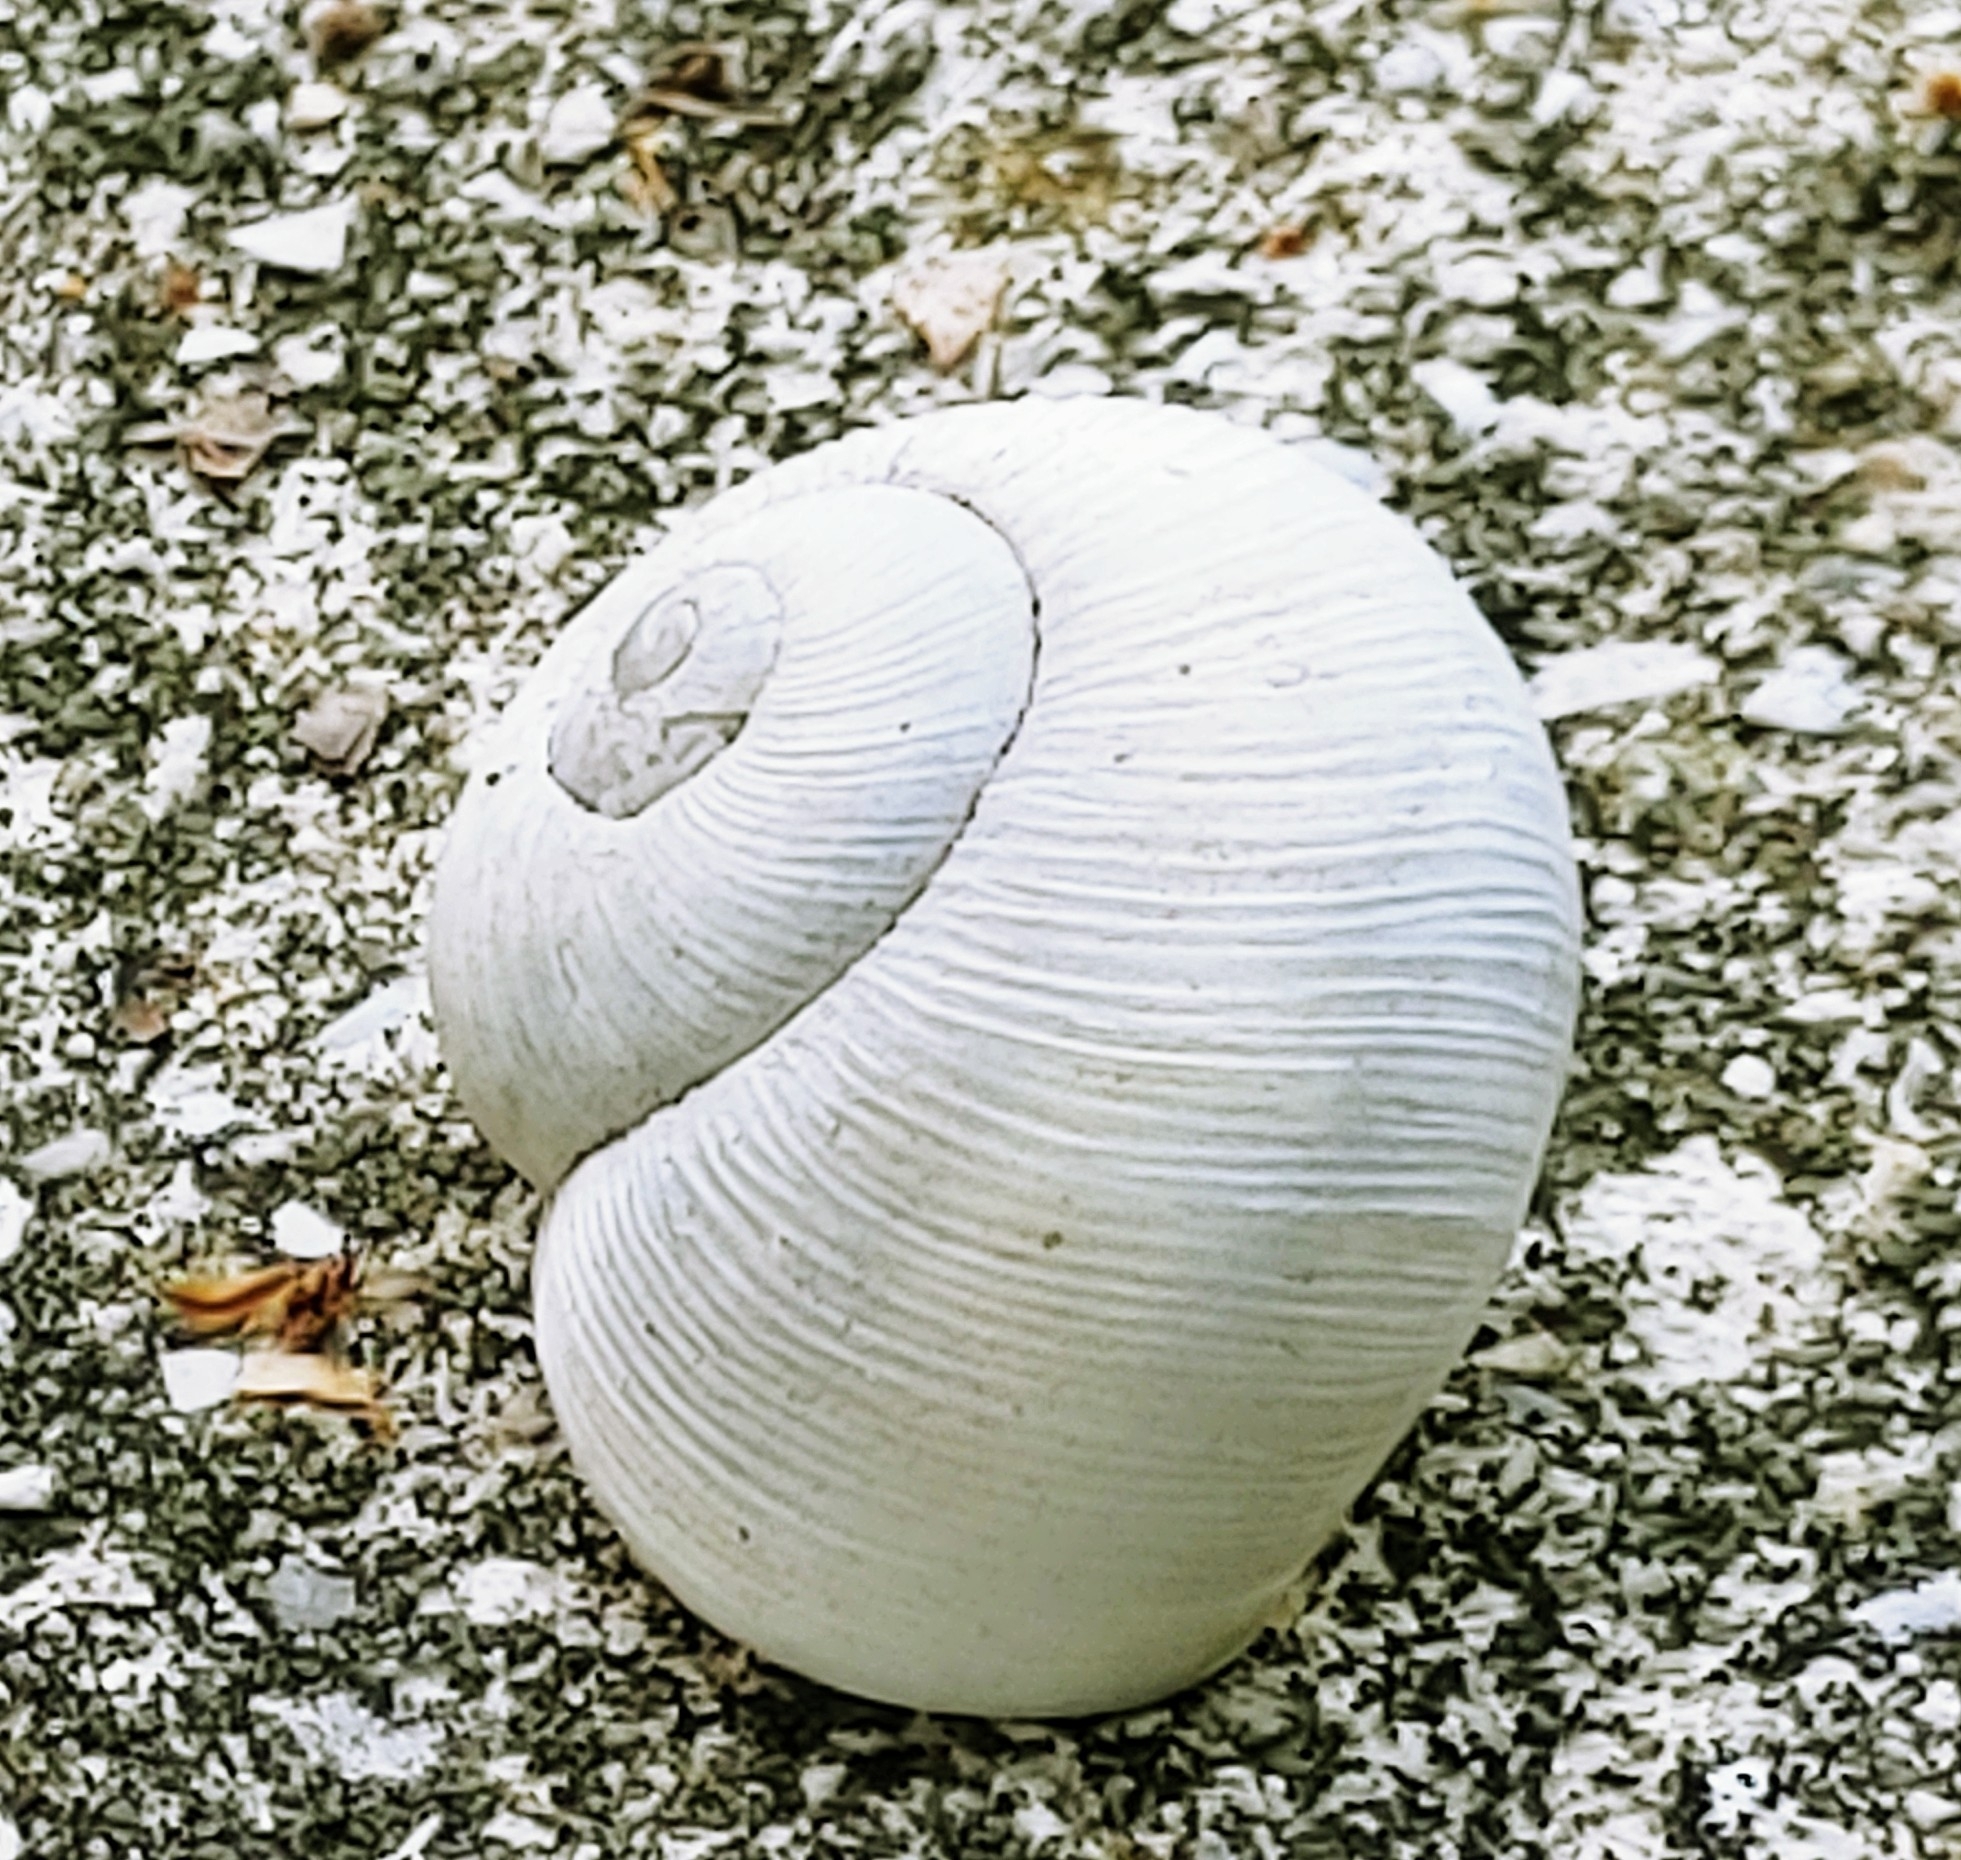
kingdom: Animalia
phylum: Mollusca
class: Gastropoda
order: Stylommatophora
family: Zachrysiidae
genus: Zachrysia
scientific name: Zachrysia provisoria
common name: Garden zachrysia
